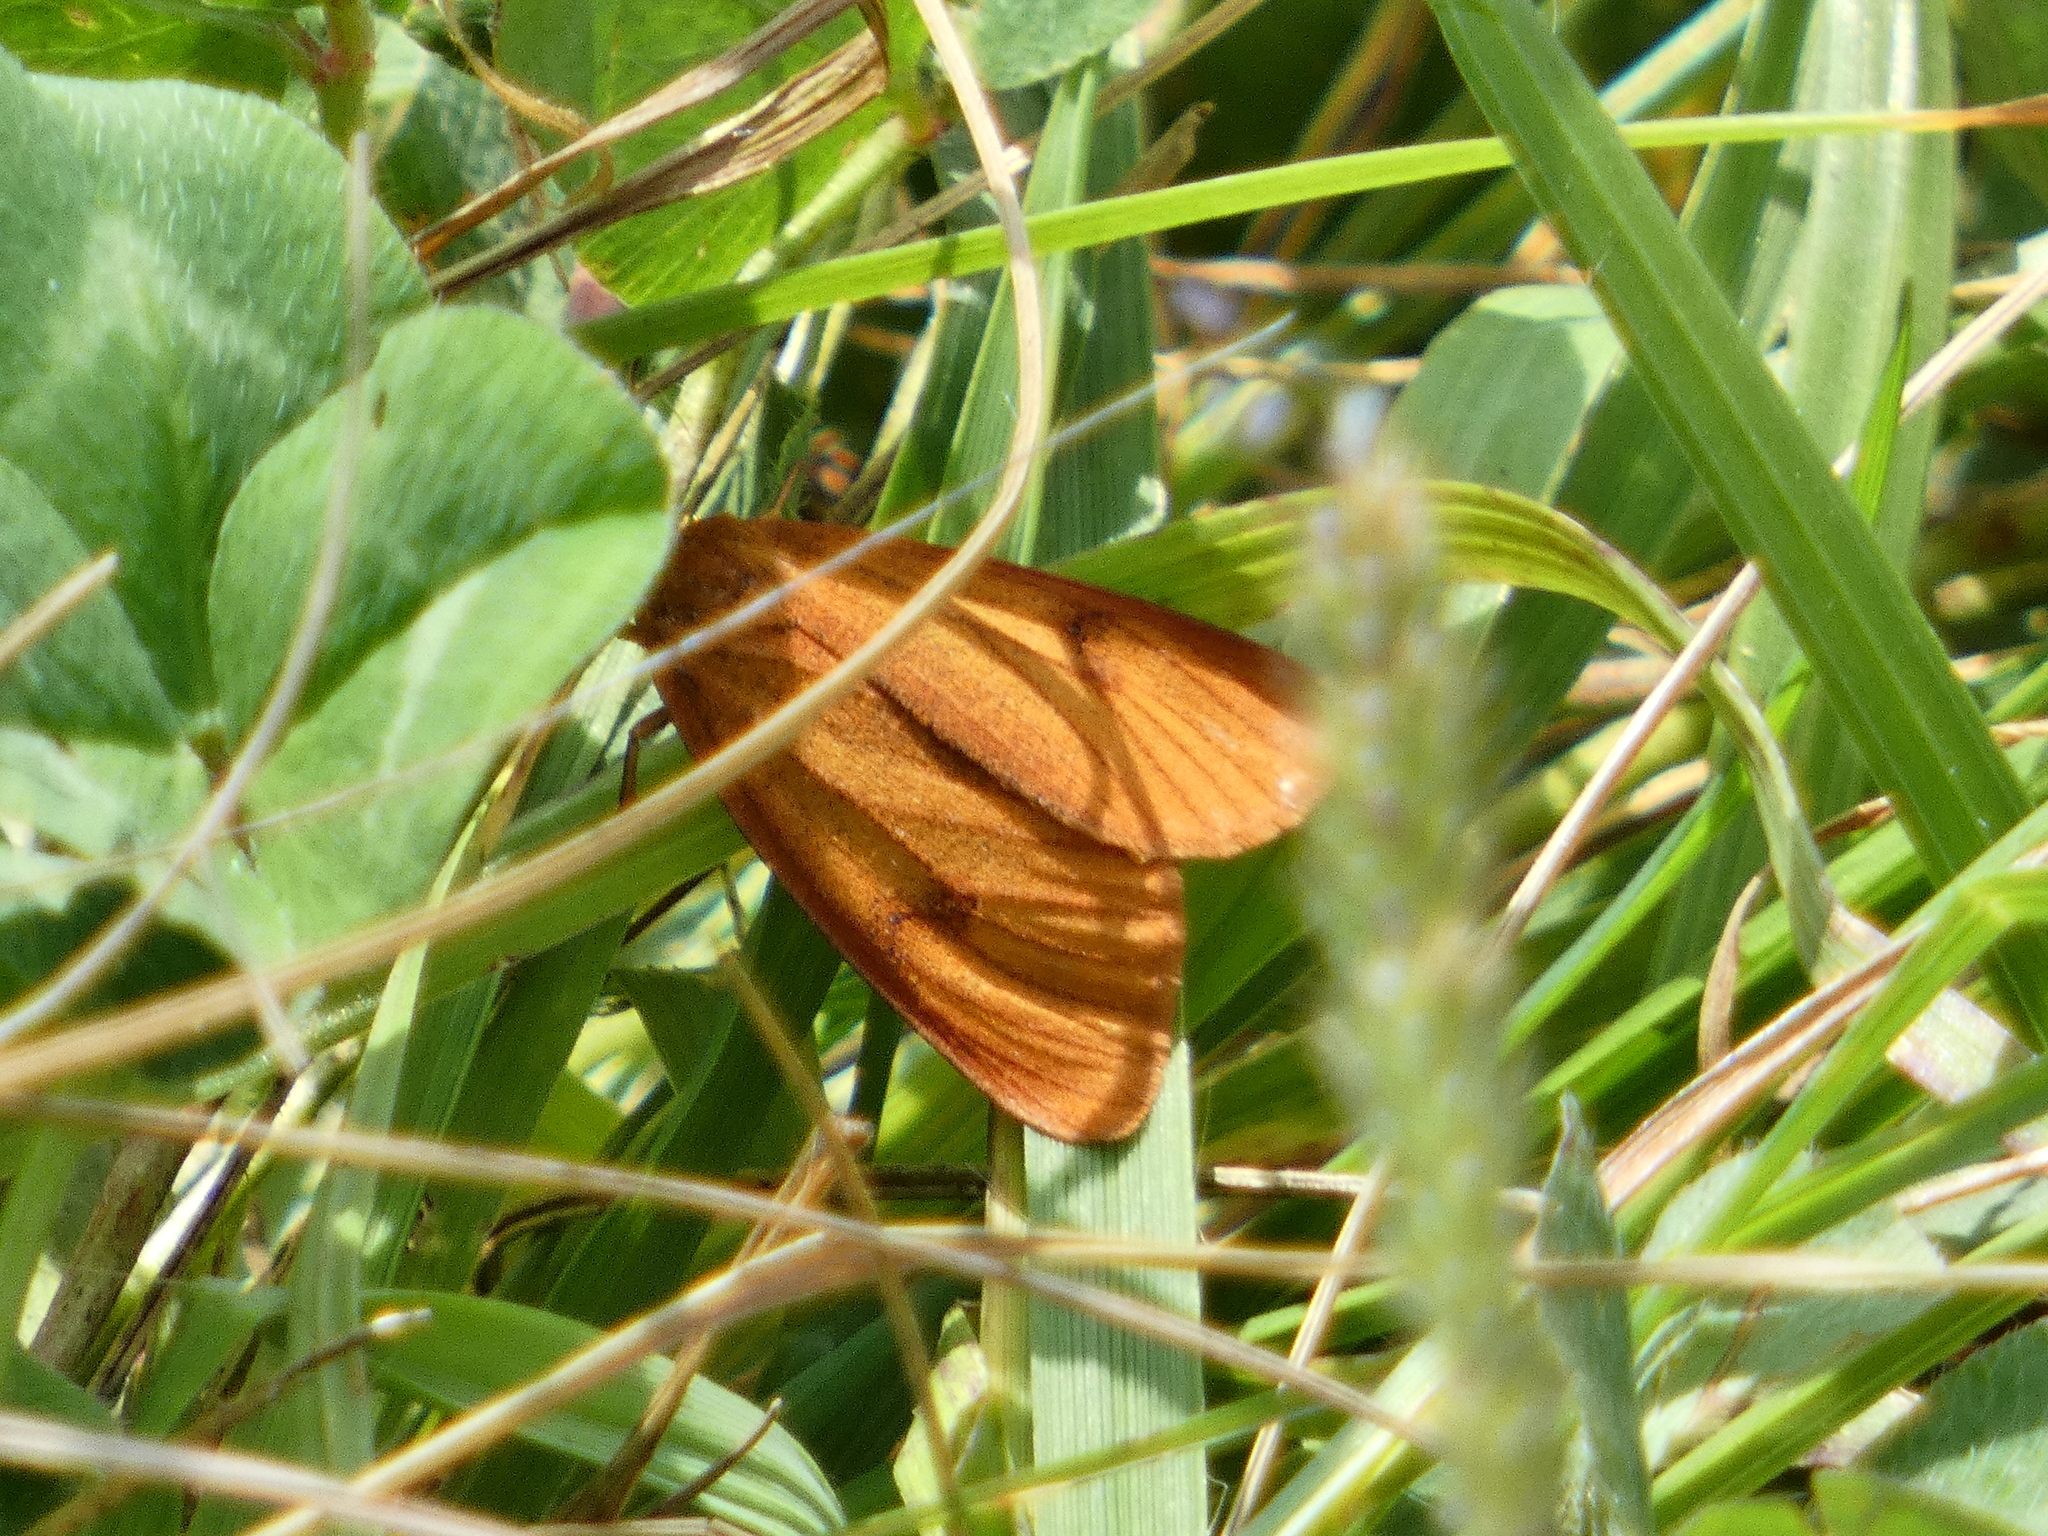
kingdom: Animalia
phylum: Arthropoda
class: Insecta
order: Lepidoptera
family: Erebidae
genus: Diacrisia
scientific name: Diacrisia sannio
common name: Clouded buff
